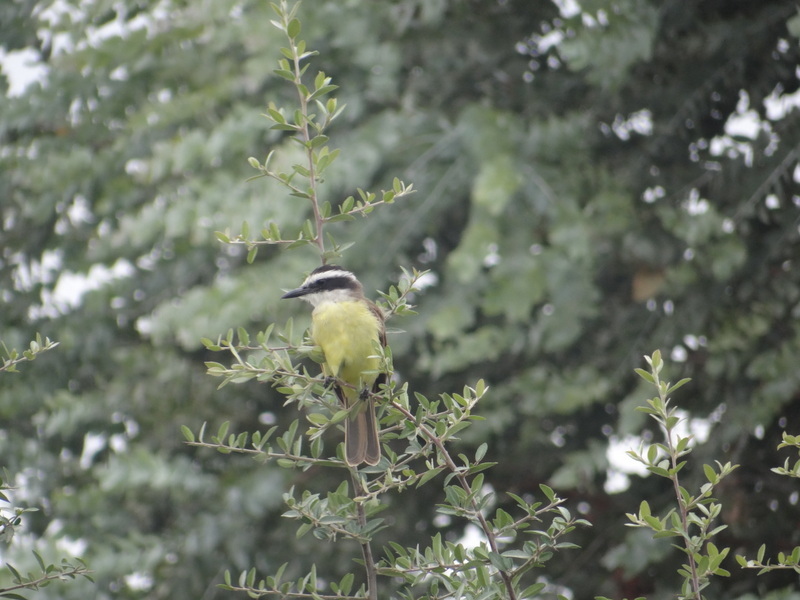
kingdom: Animalia
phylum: Chordata
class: Aves
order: Passeriformes
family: Tyrannidae
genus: Pitangus
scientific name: Pitangus sulphuratus
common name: Great kiskadee
